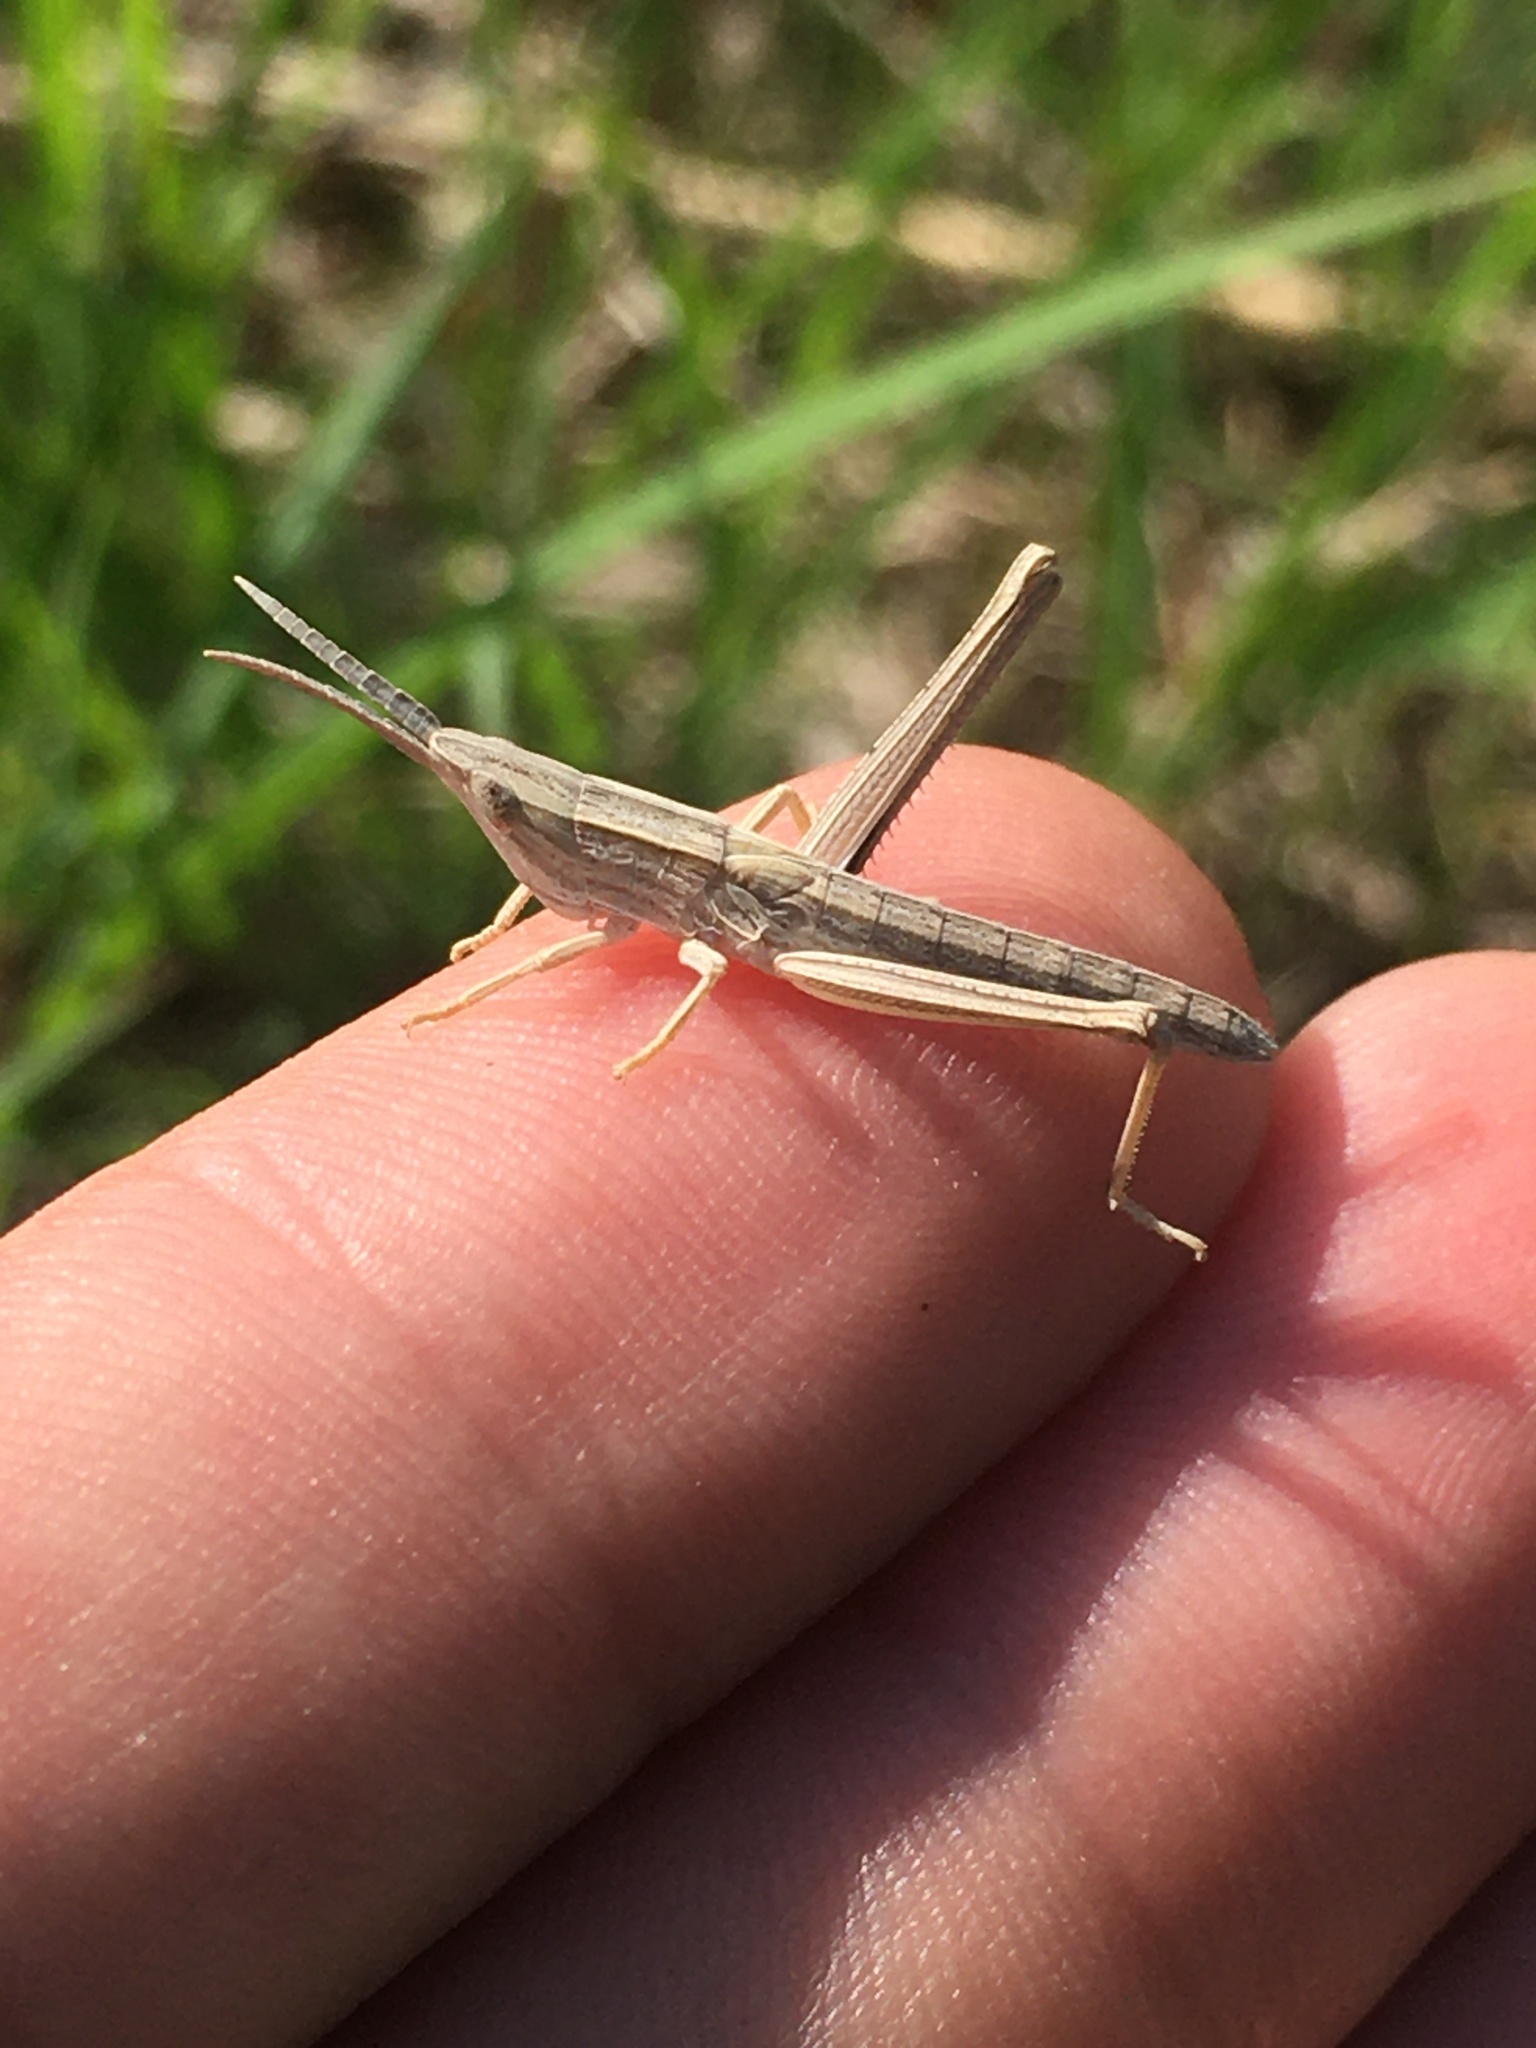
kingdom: Animalia
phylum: Arthropoda
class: Insecta
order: Orthoptera
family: Acrididae
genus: Pseudopomala
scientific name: Pseudopomala brachyptera
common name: Bunchgrass grasshopper
